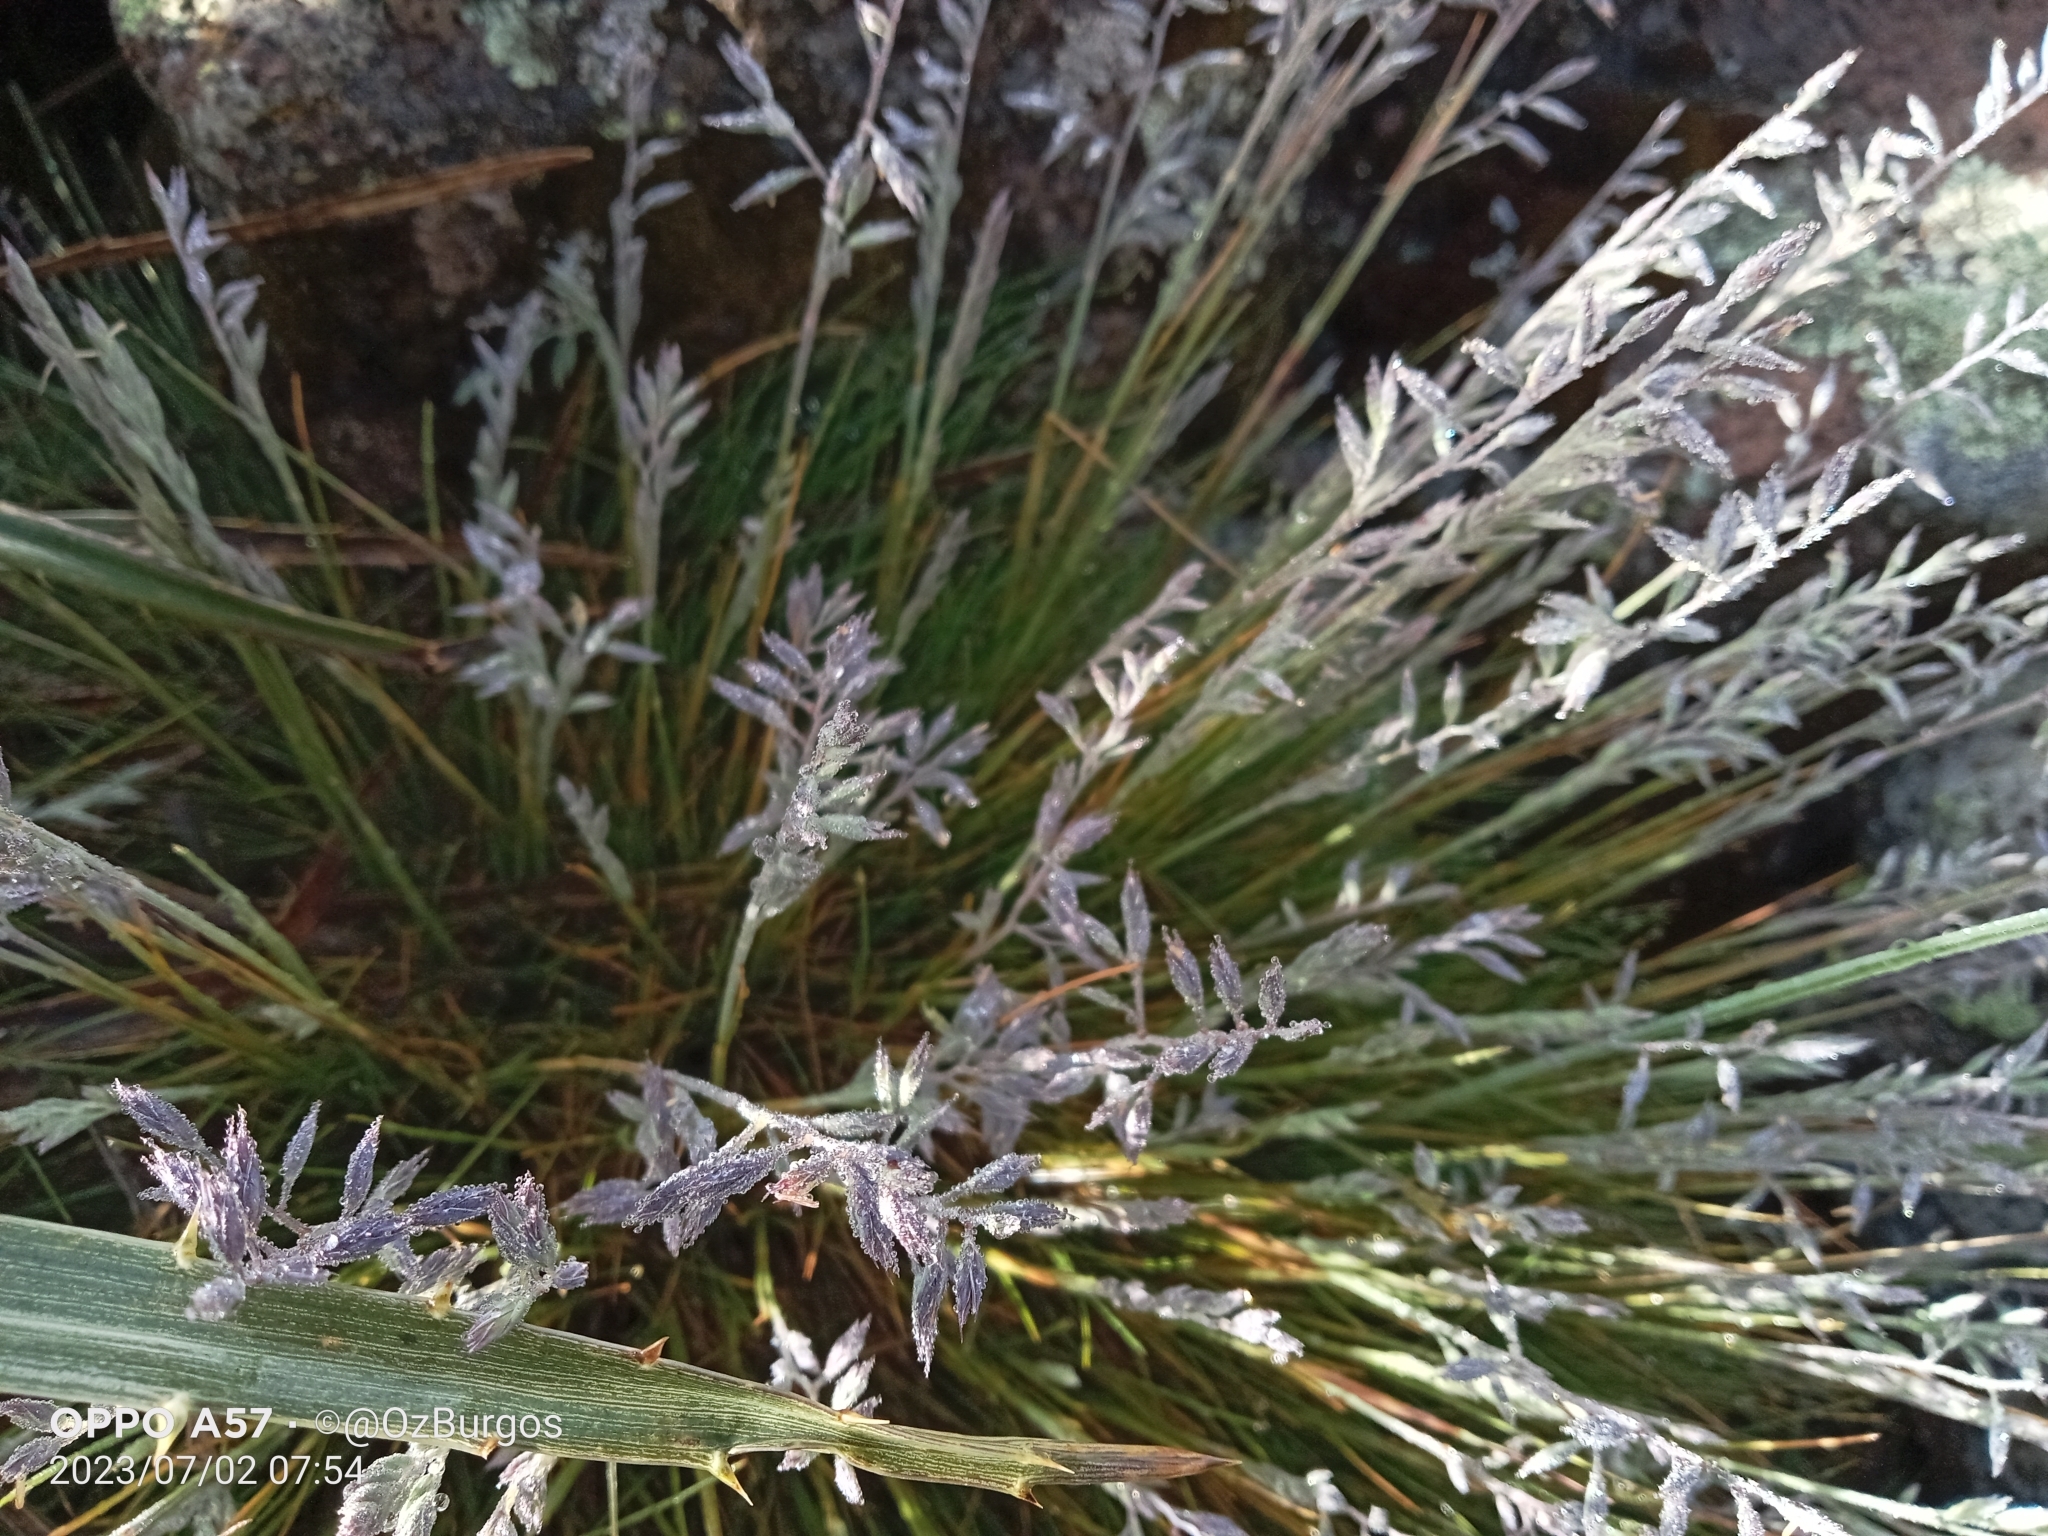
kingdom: Plantae
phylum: Tracheophyta
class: Liliopsida
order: Poales
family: Poaceae
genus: Eragrostis
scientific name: Eragrostis pectinacea
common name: Tufted lovegrass
